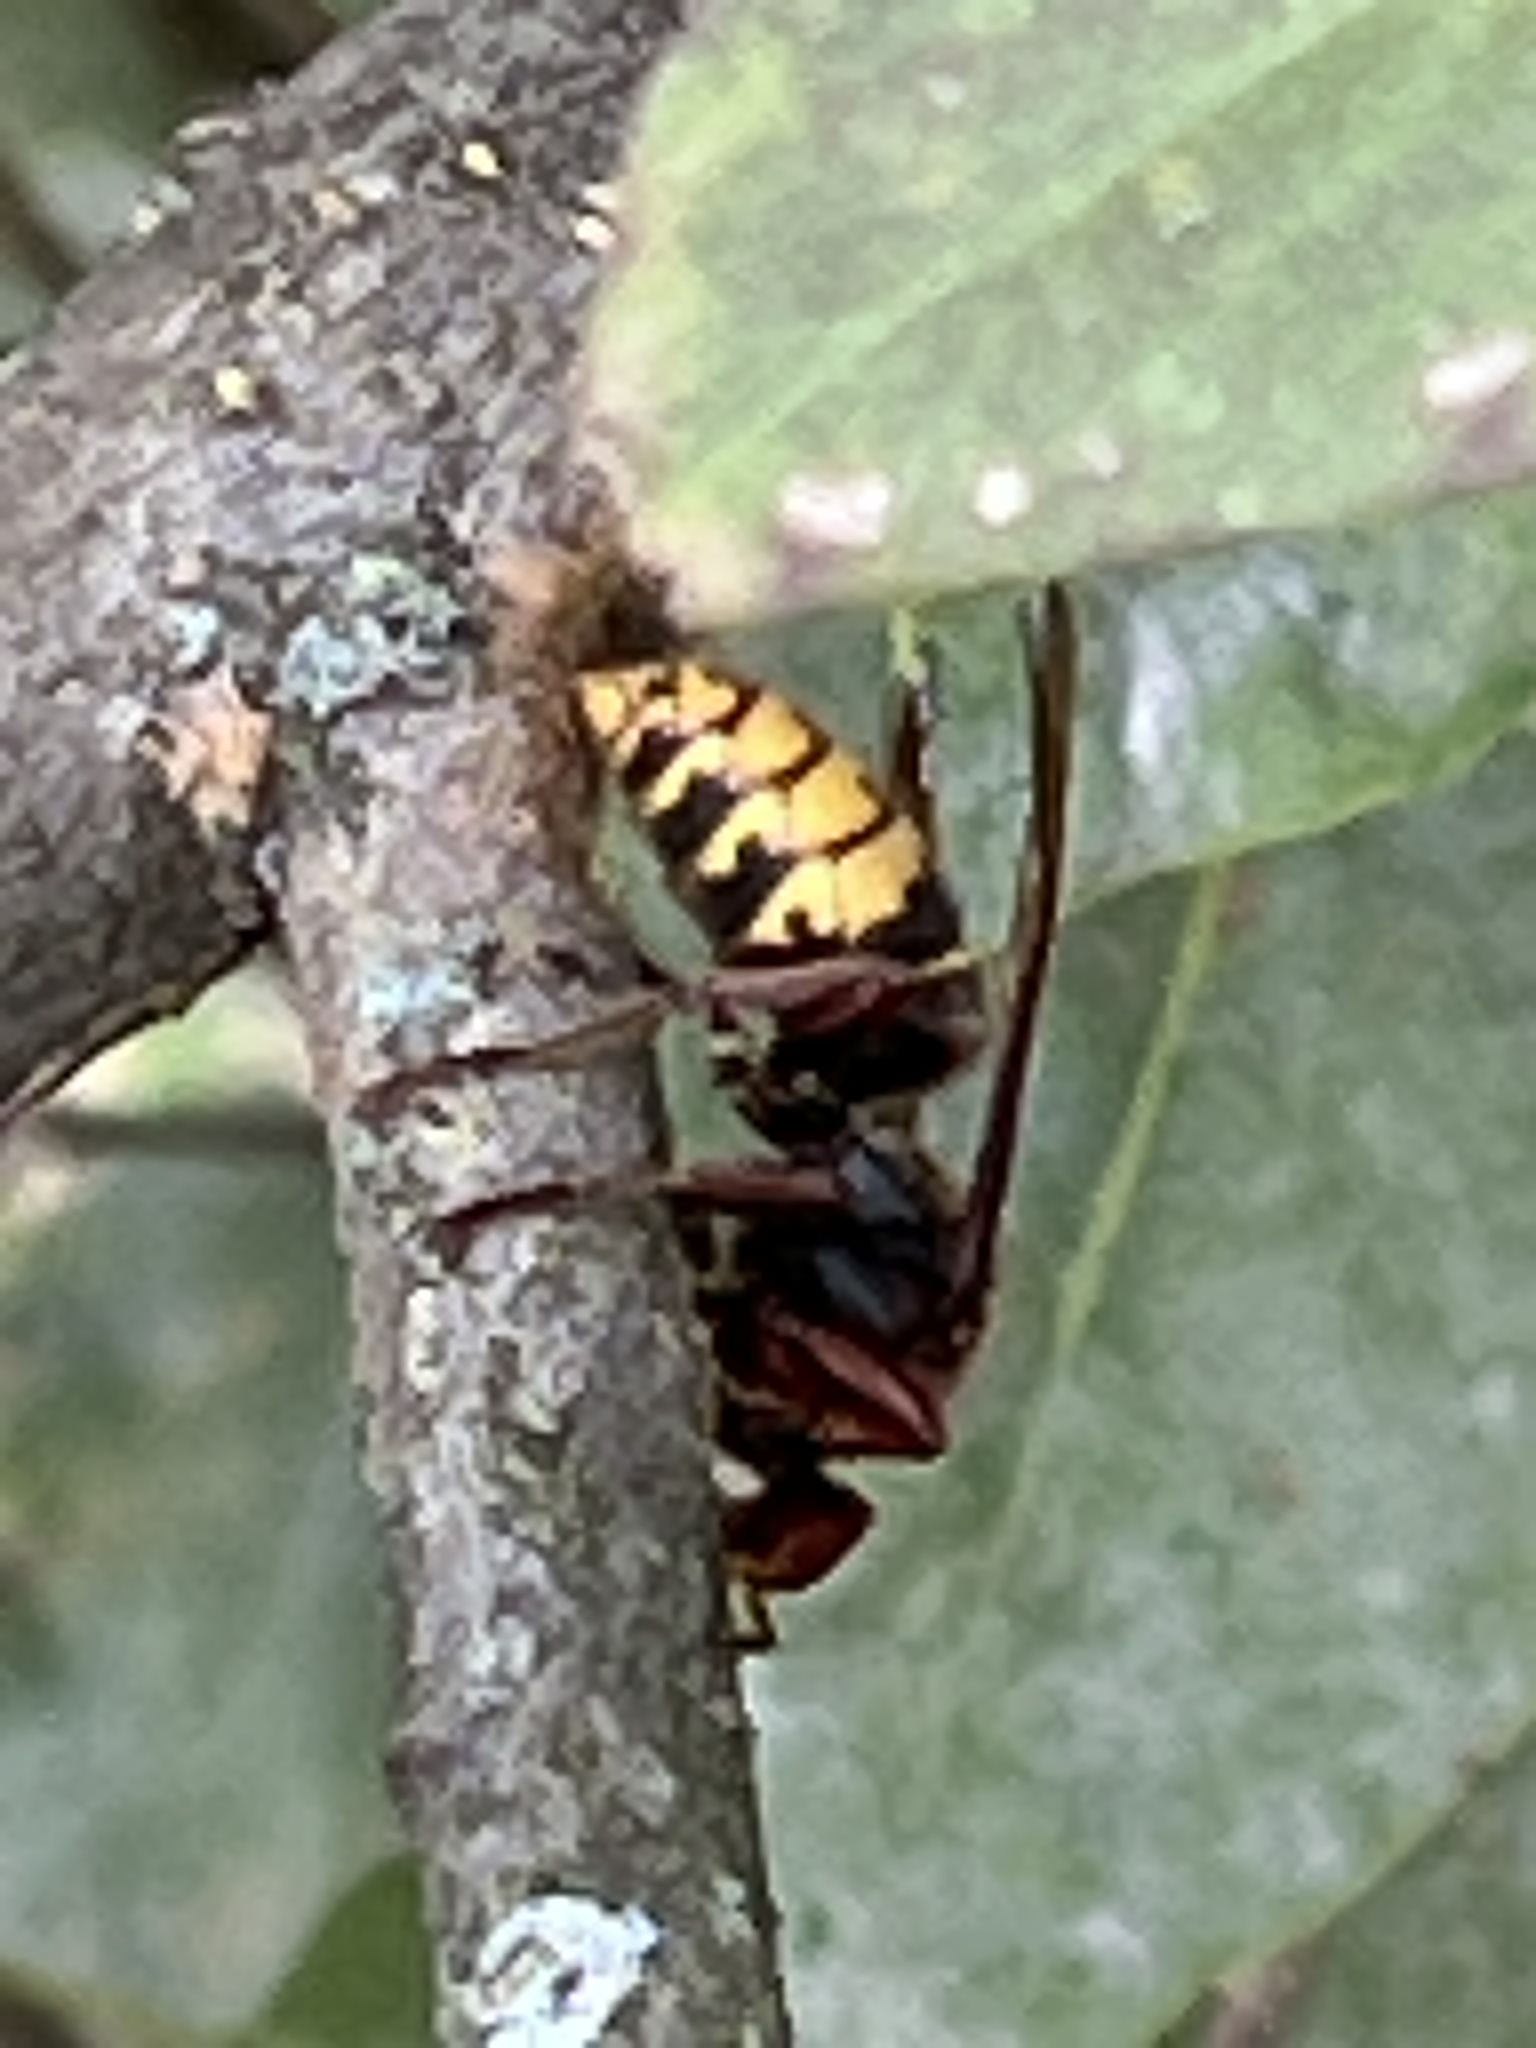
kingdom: Animalia
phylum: Arthropoda
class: Insecta
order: Hymenoptera
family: Vespidae
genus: Vespa
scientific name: Vespa crabro
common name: Hornet
